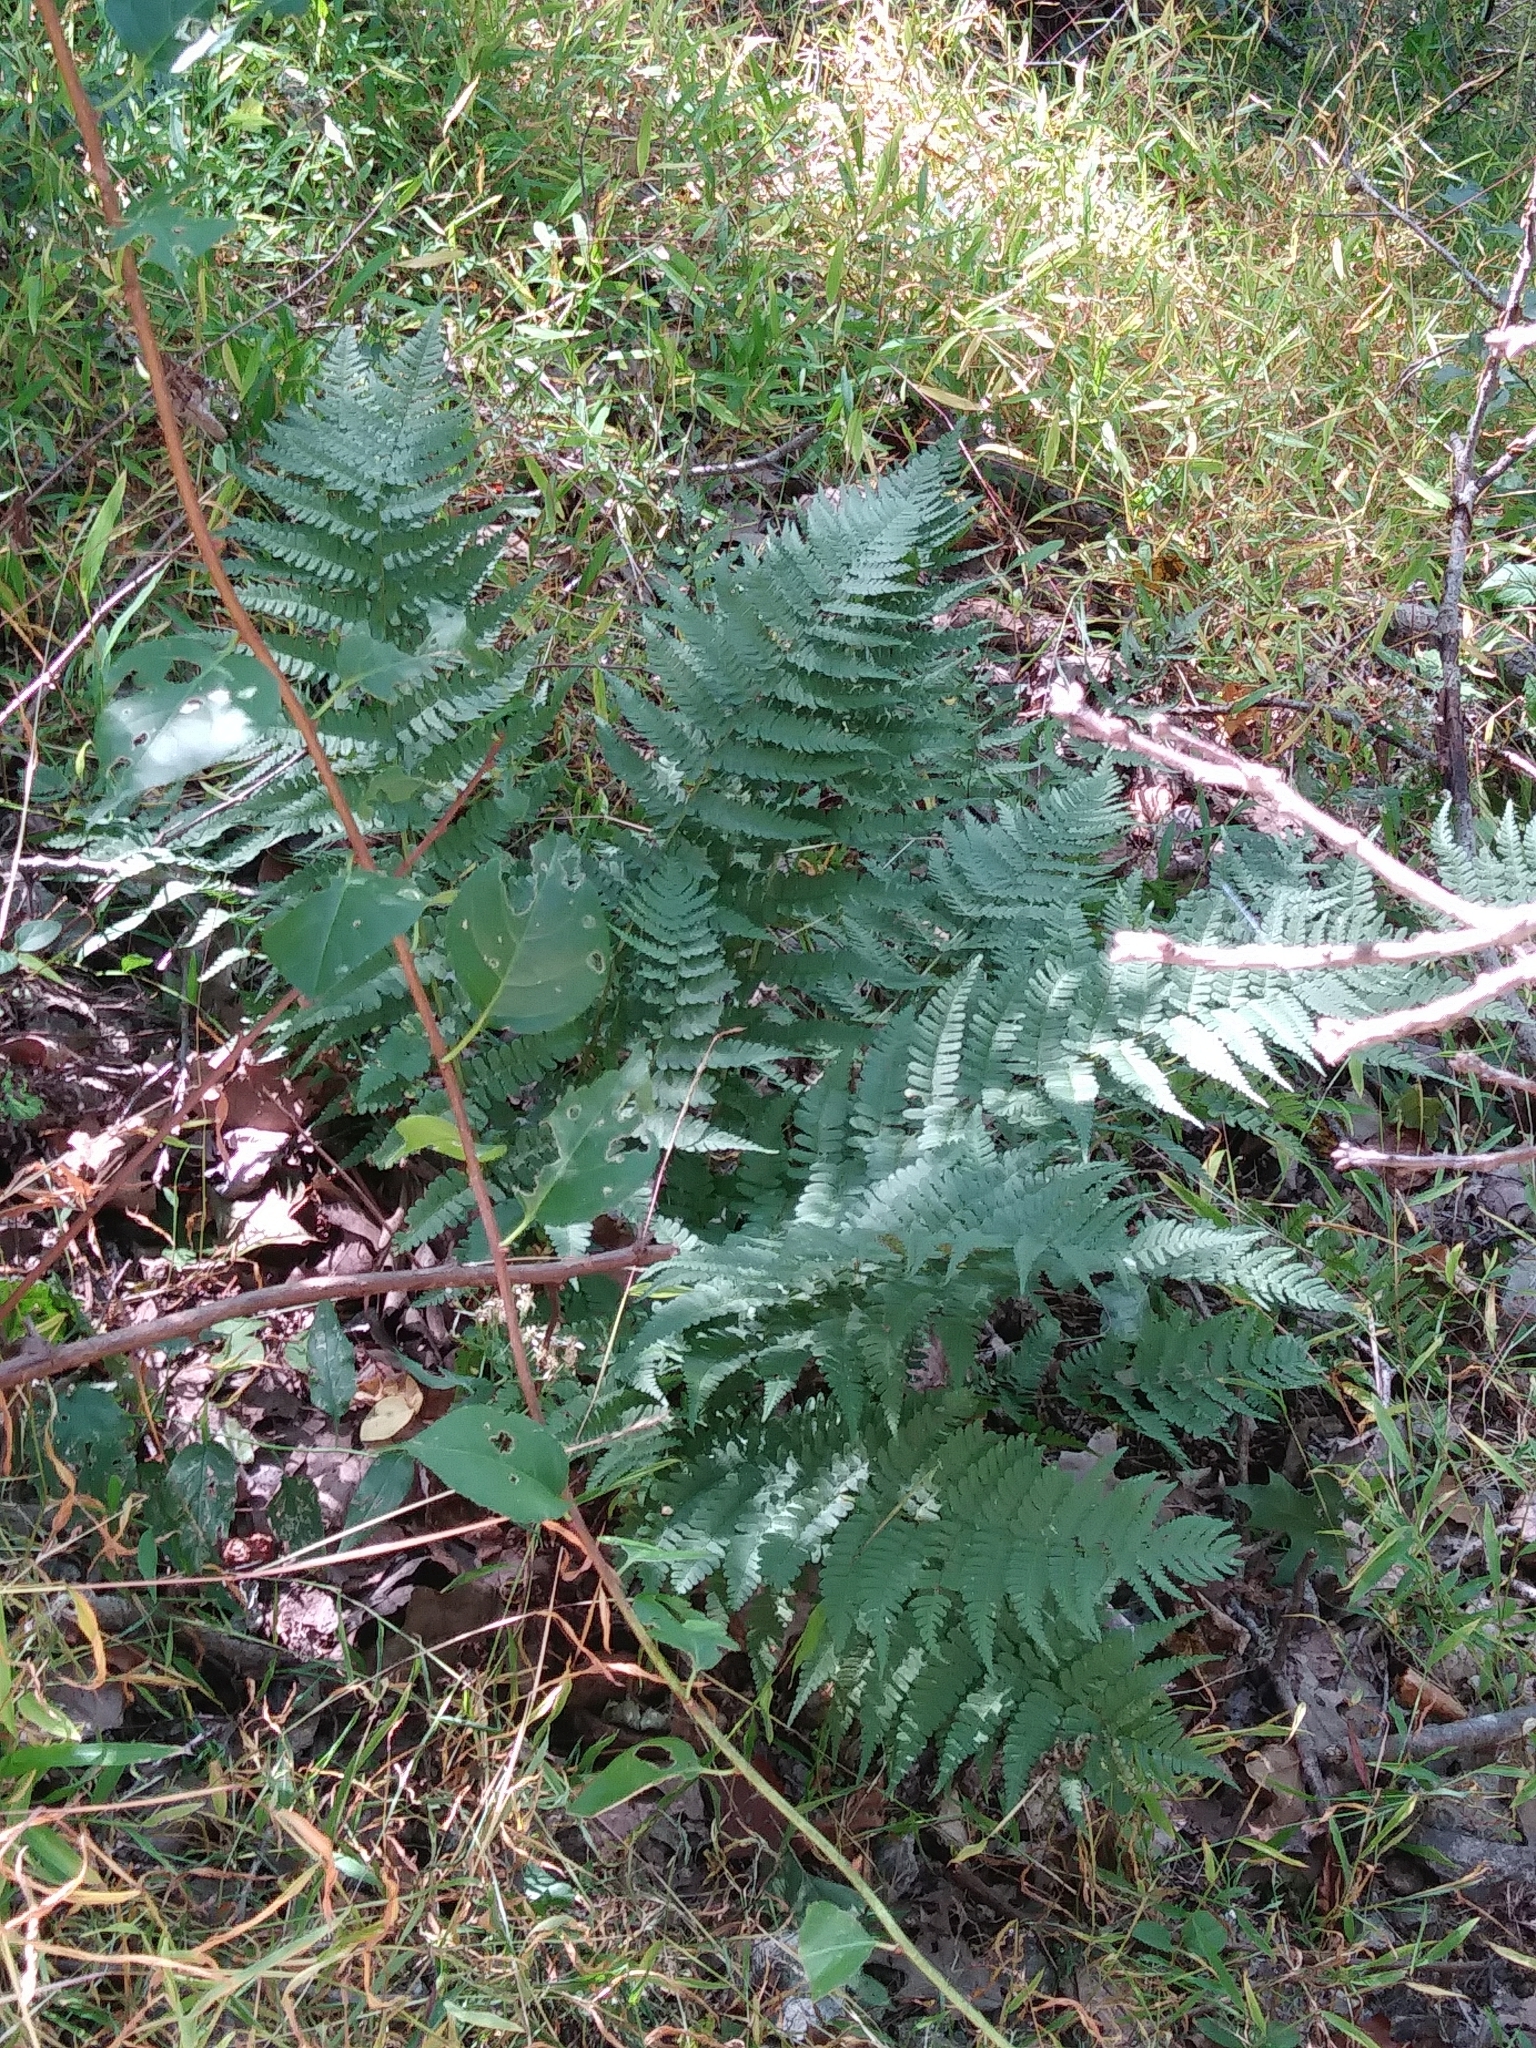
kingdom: Plantae
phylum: Tracheophyta
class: Polypodiopsida
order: Polypodiales
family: Dryopteridaceae
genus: Dryopteris
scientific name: Dryopteris marginalis
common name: Marginal wood fern
